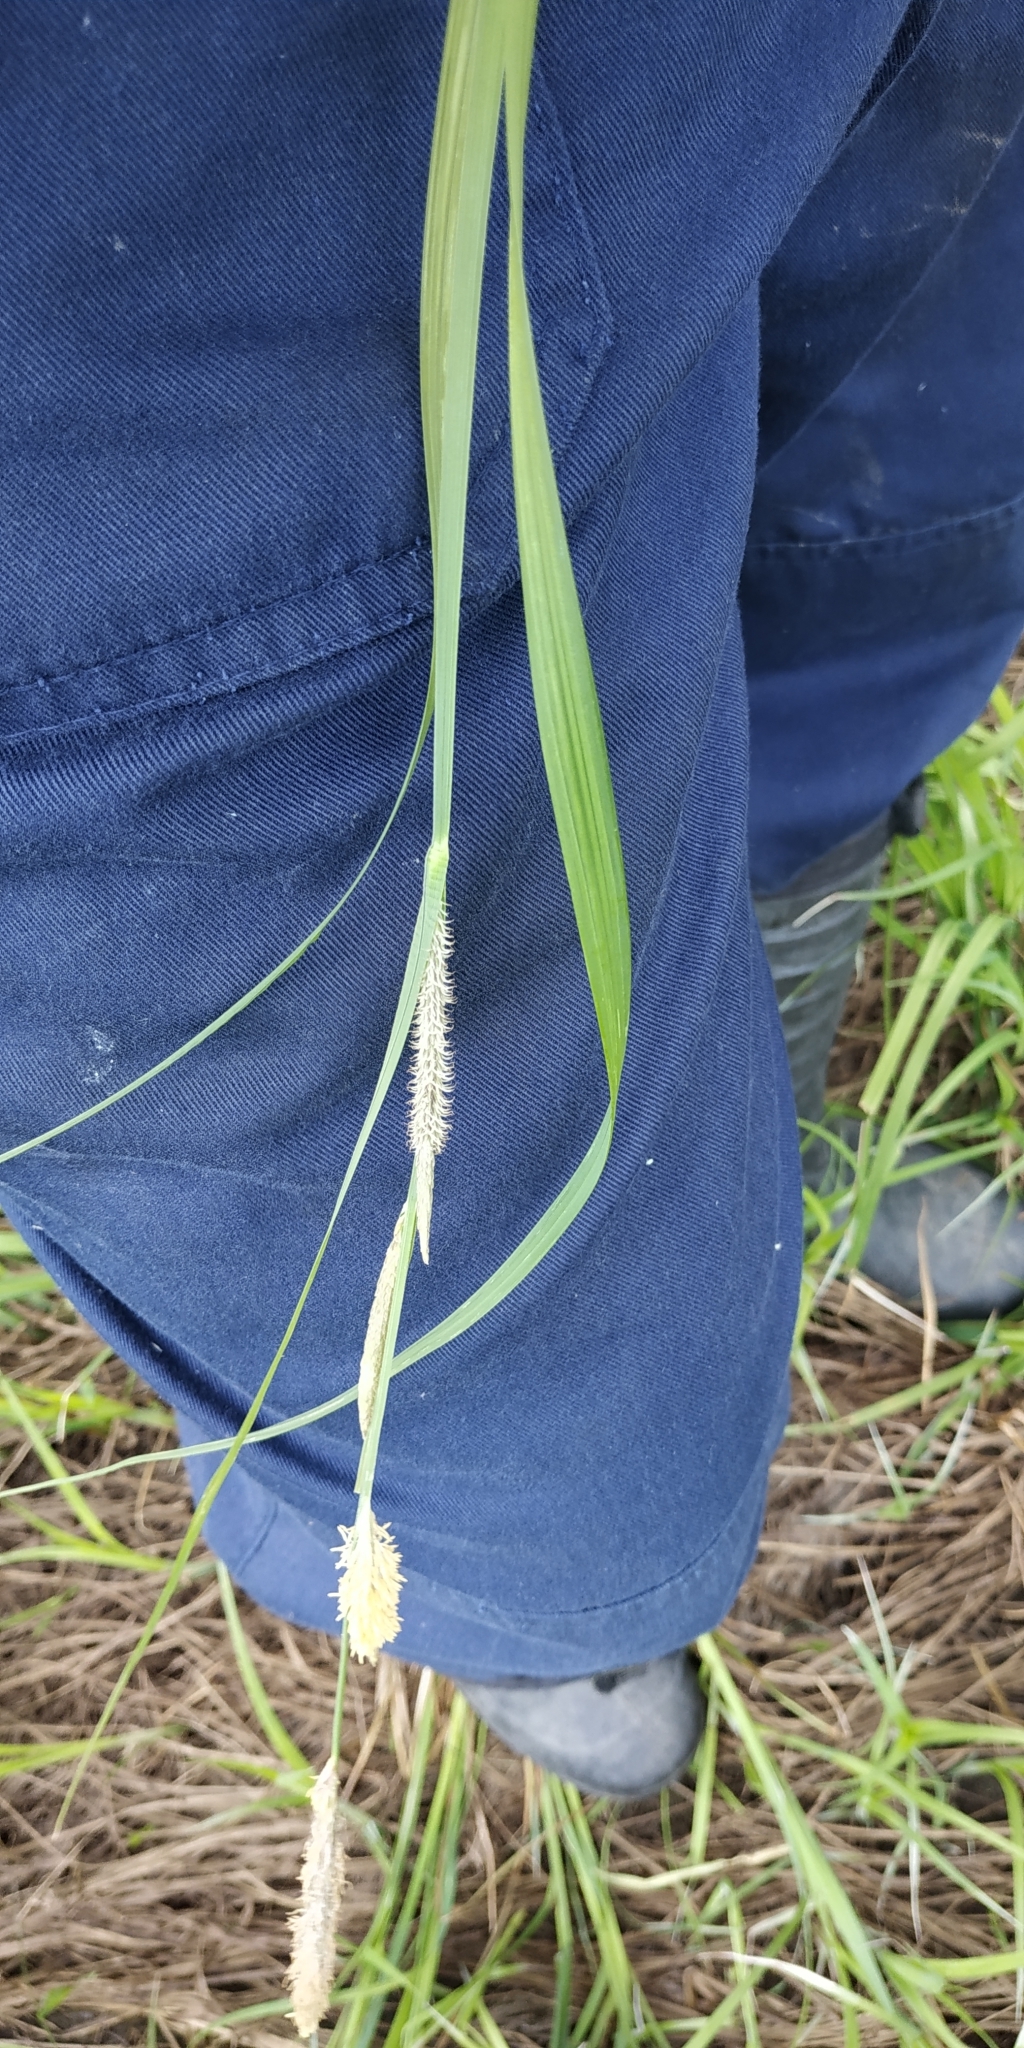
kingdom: Plantae
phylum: Tracheophyta
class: Liliopsida
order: Poales
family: Cyperaceae
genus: Carex
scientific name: Carex acuta
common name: Slender tufted-sedge
